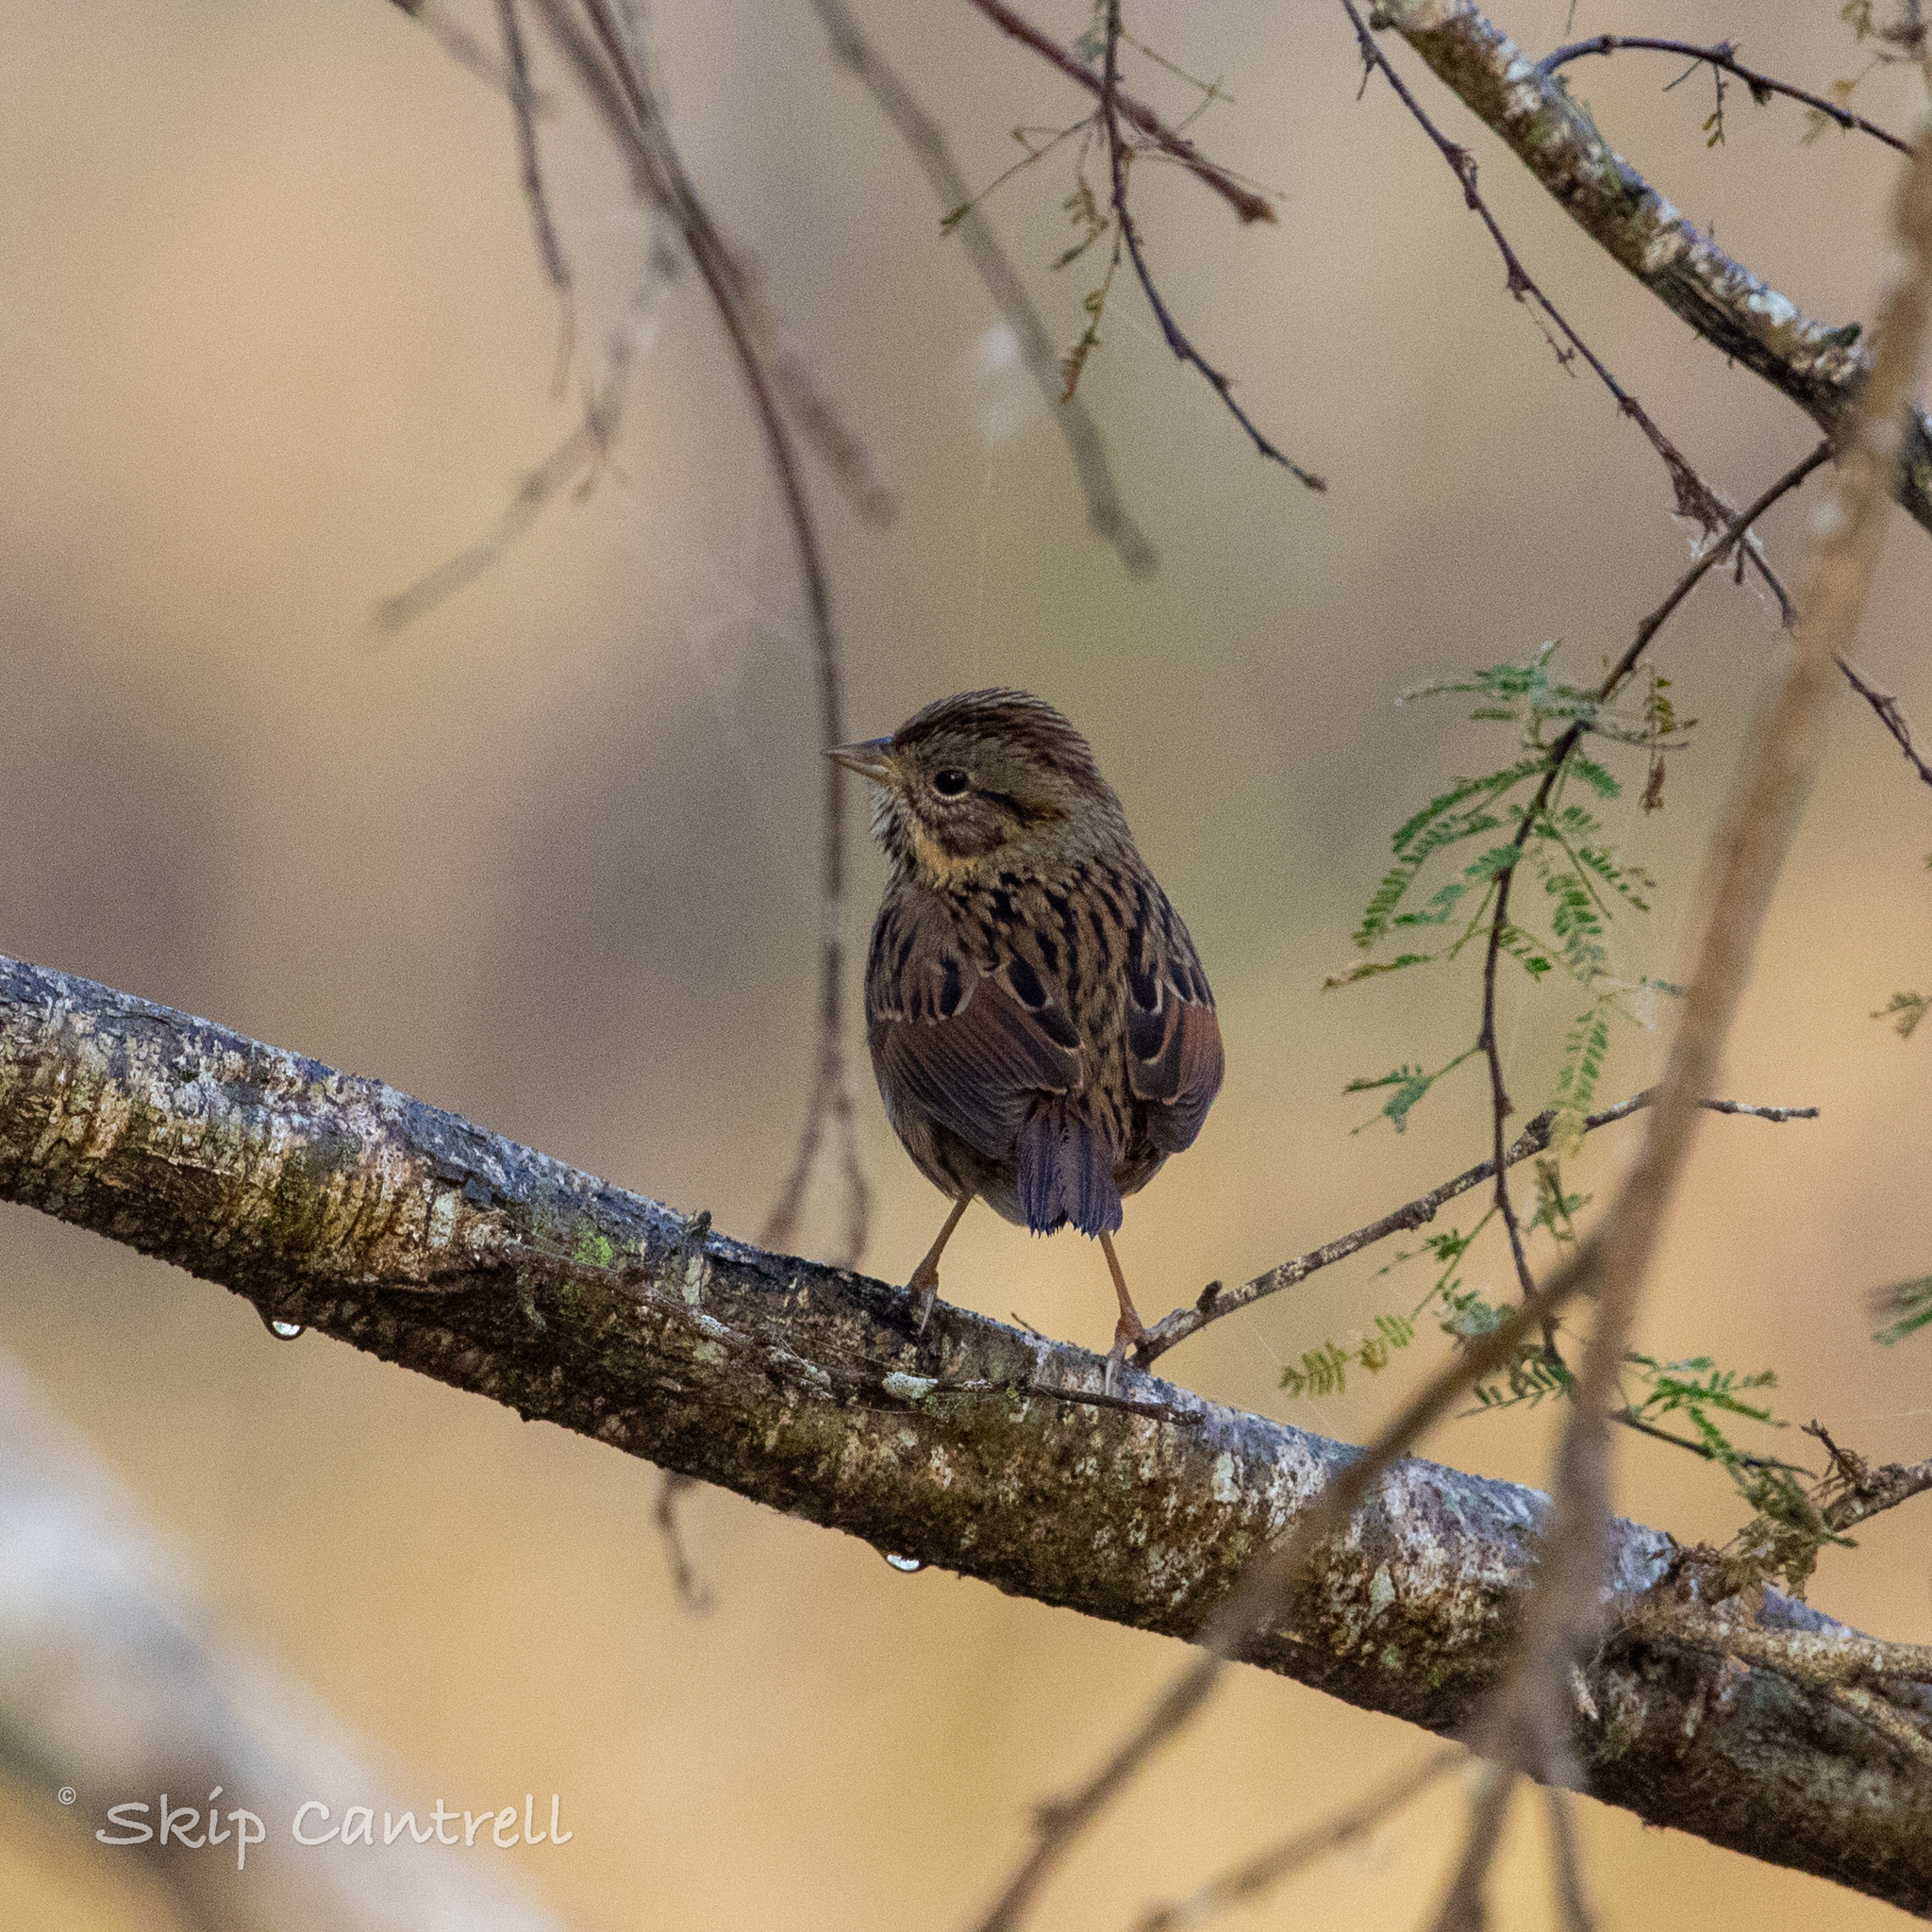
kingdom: Animalia
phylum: Chordata
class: Aves
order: Passeriformes
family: Passerellidae
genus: Melospiza
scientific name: Melospiza lincolnii
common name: Lincoln's sparrow
